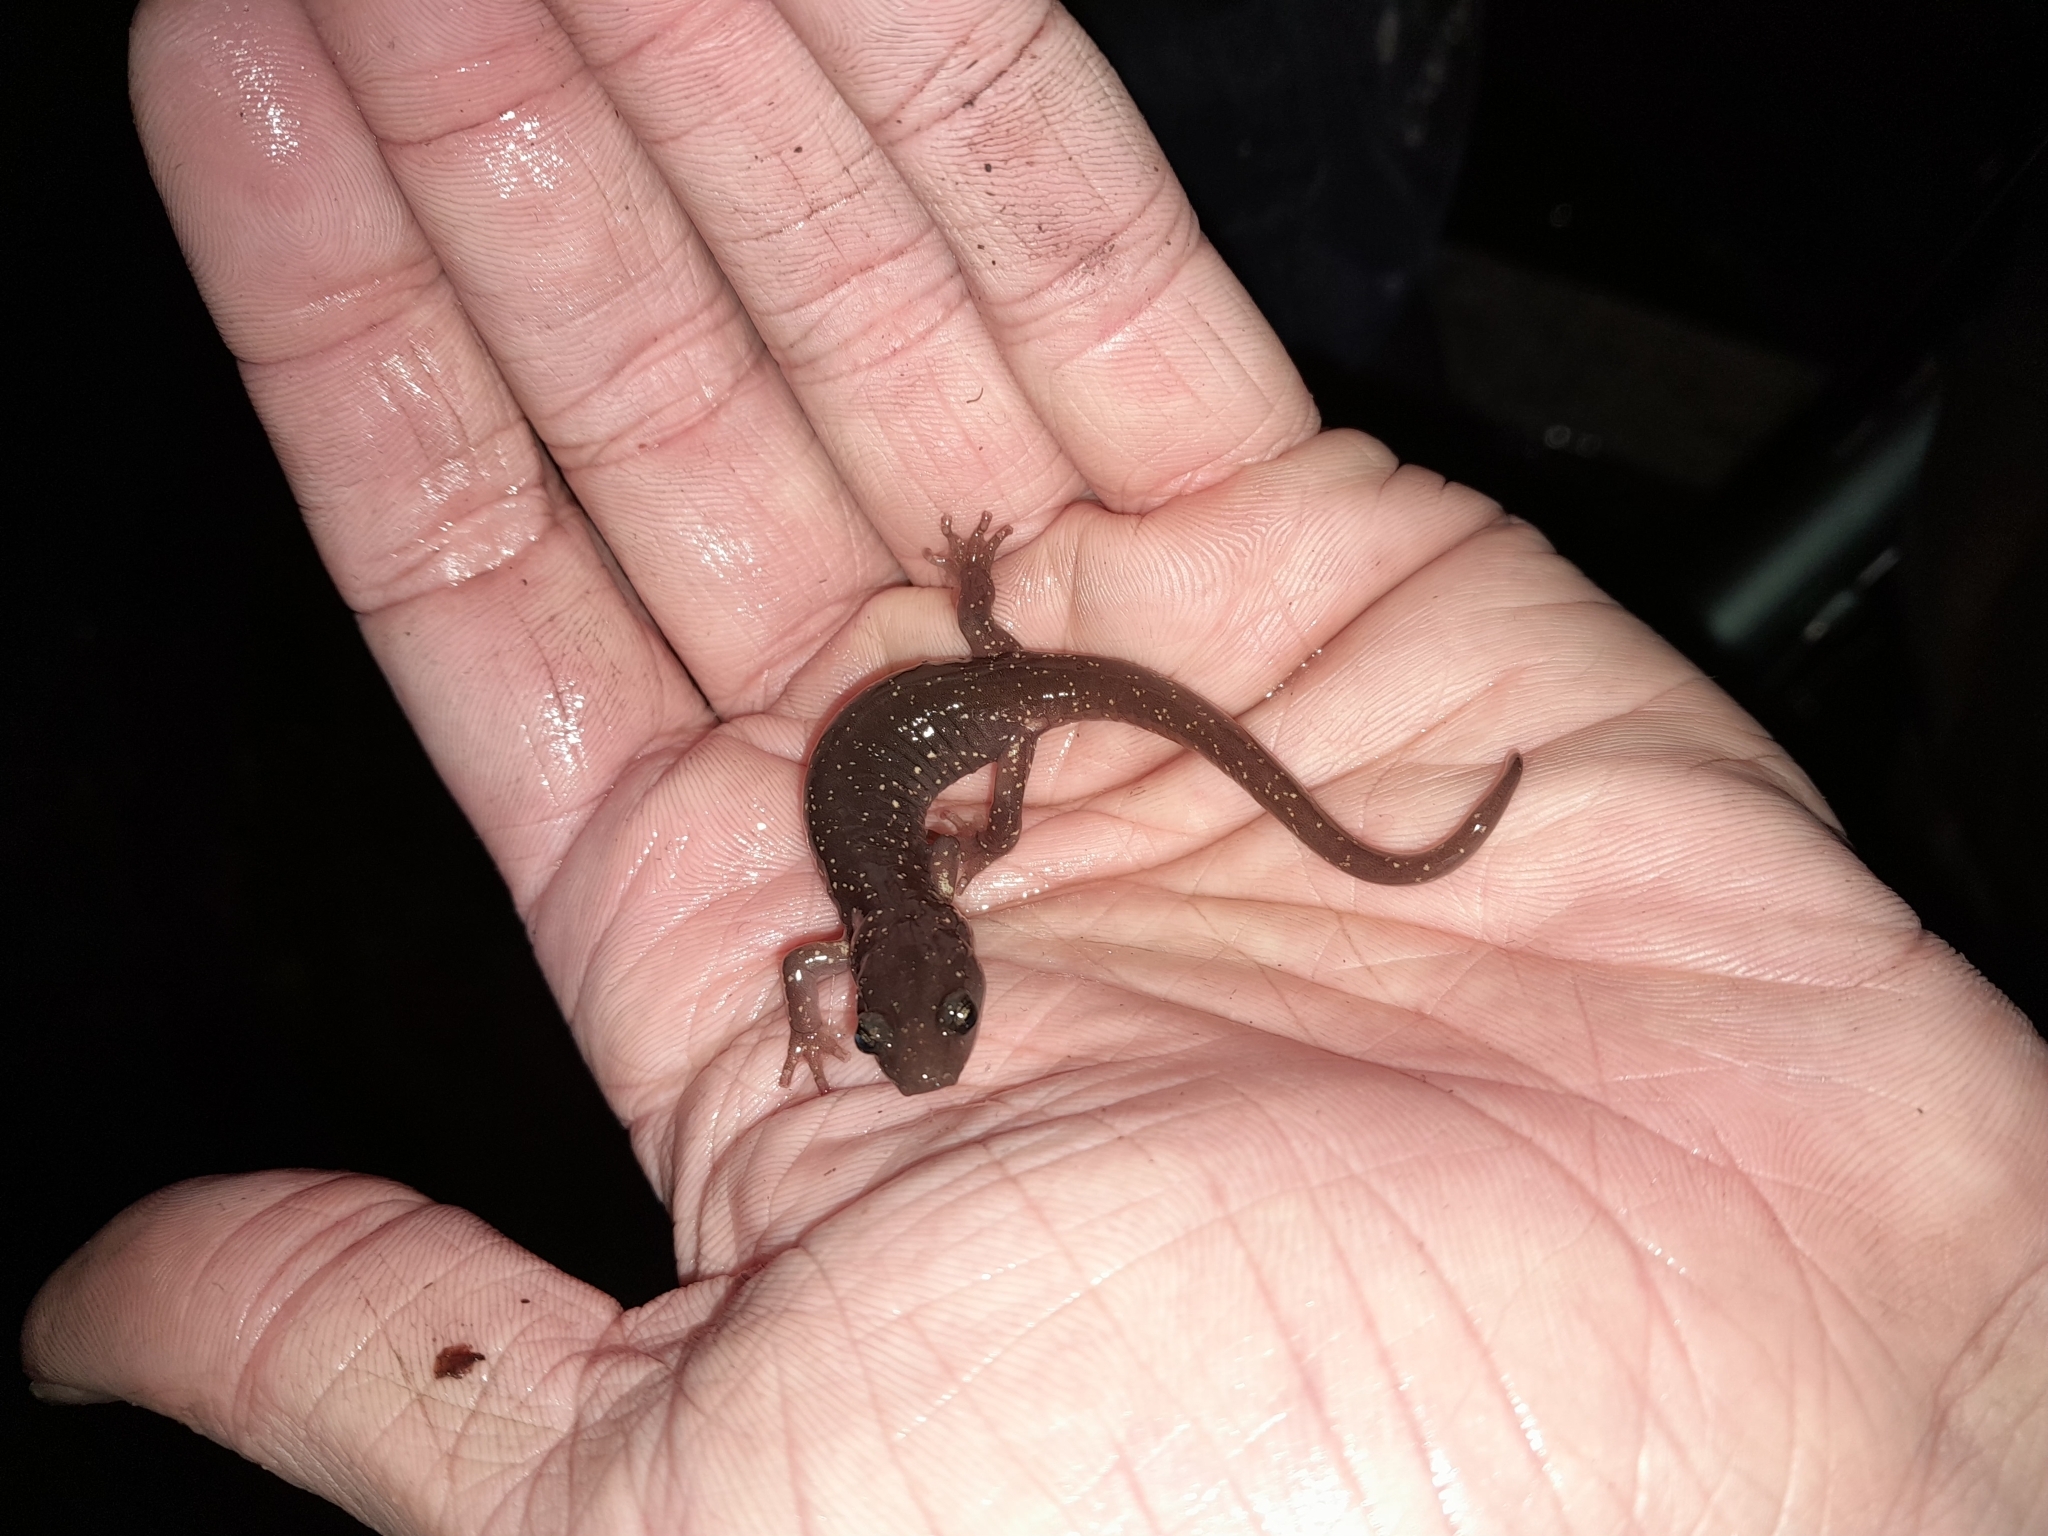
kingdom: Animalia
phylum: Chordata
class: Amphibia
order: Caudata
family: Plethodontidae
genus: Aneides
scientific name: Aneides lugubris
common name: Arboreal salamander
